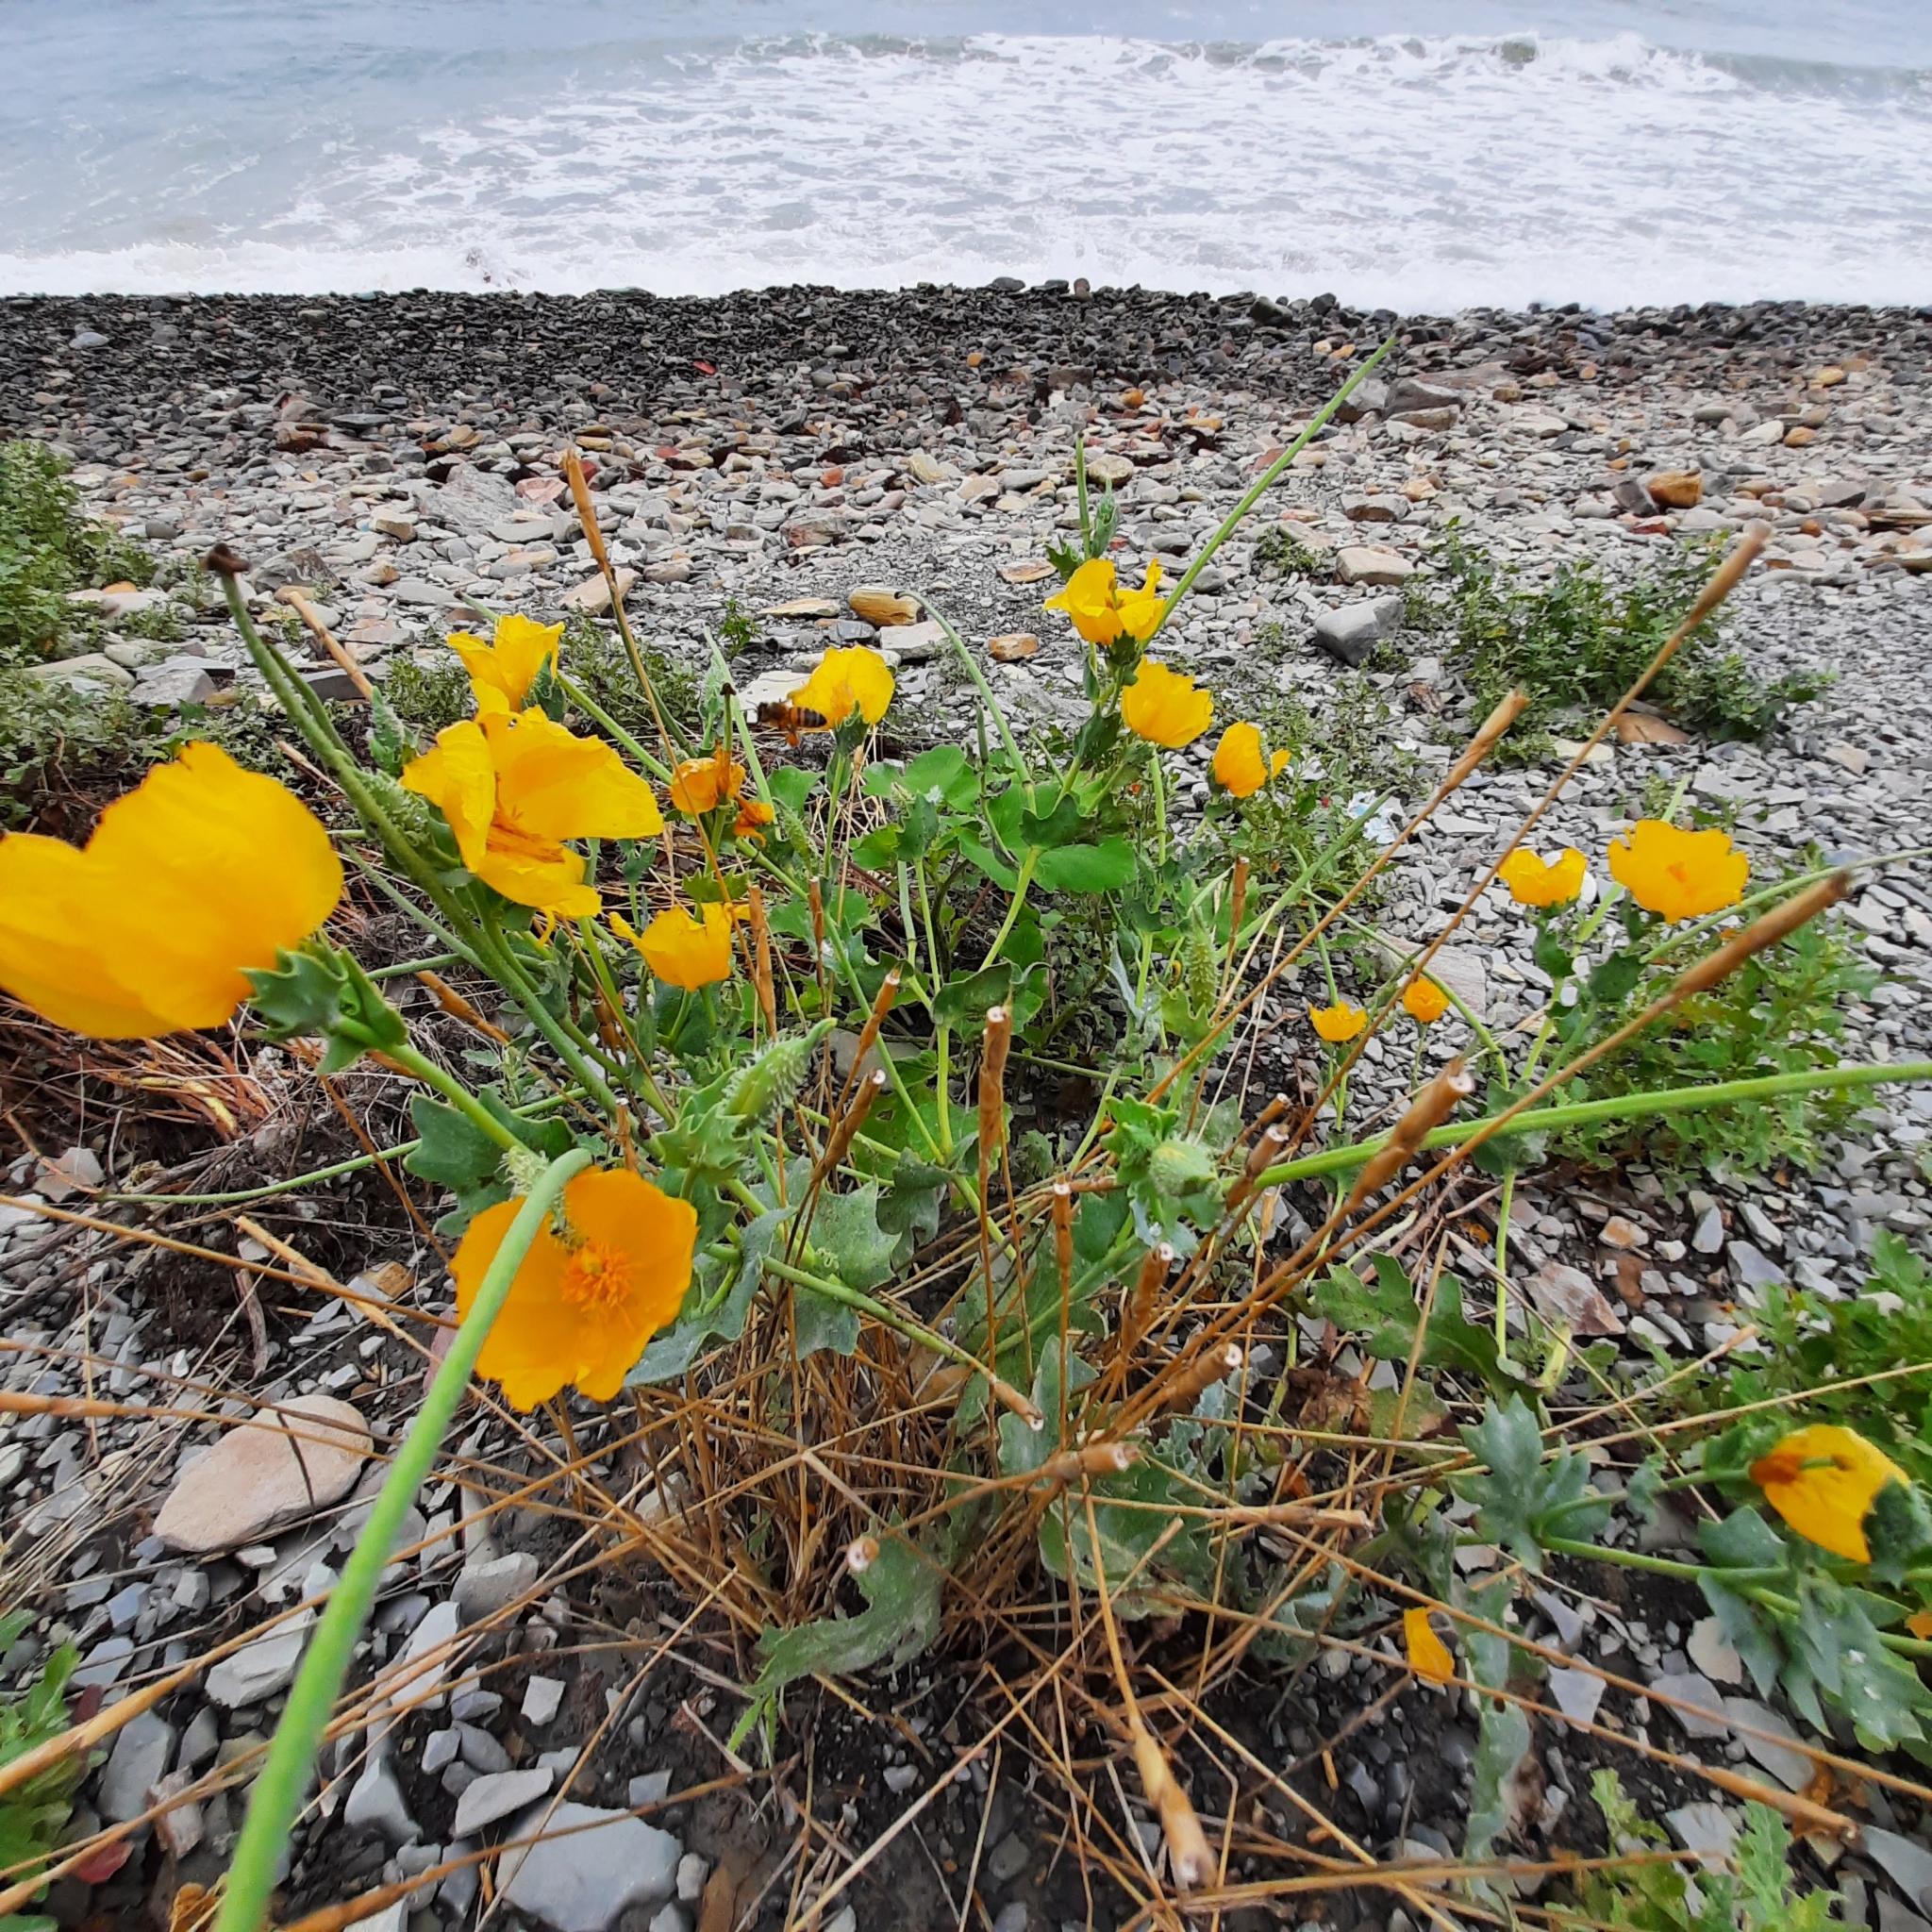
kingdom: Plantae
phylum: Tracheophyta
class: Magnoliopsida
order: Ranunculales
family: Papaveraceae
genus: Glaucium
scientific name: Glaucium flavum
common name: Yellow horned-poppy
